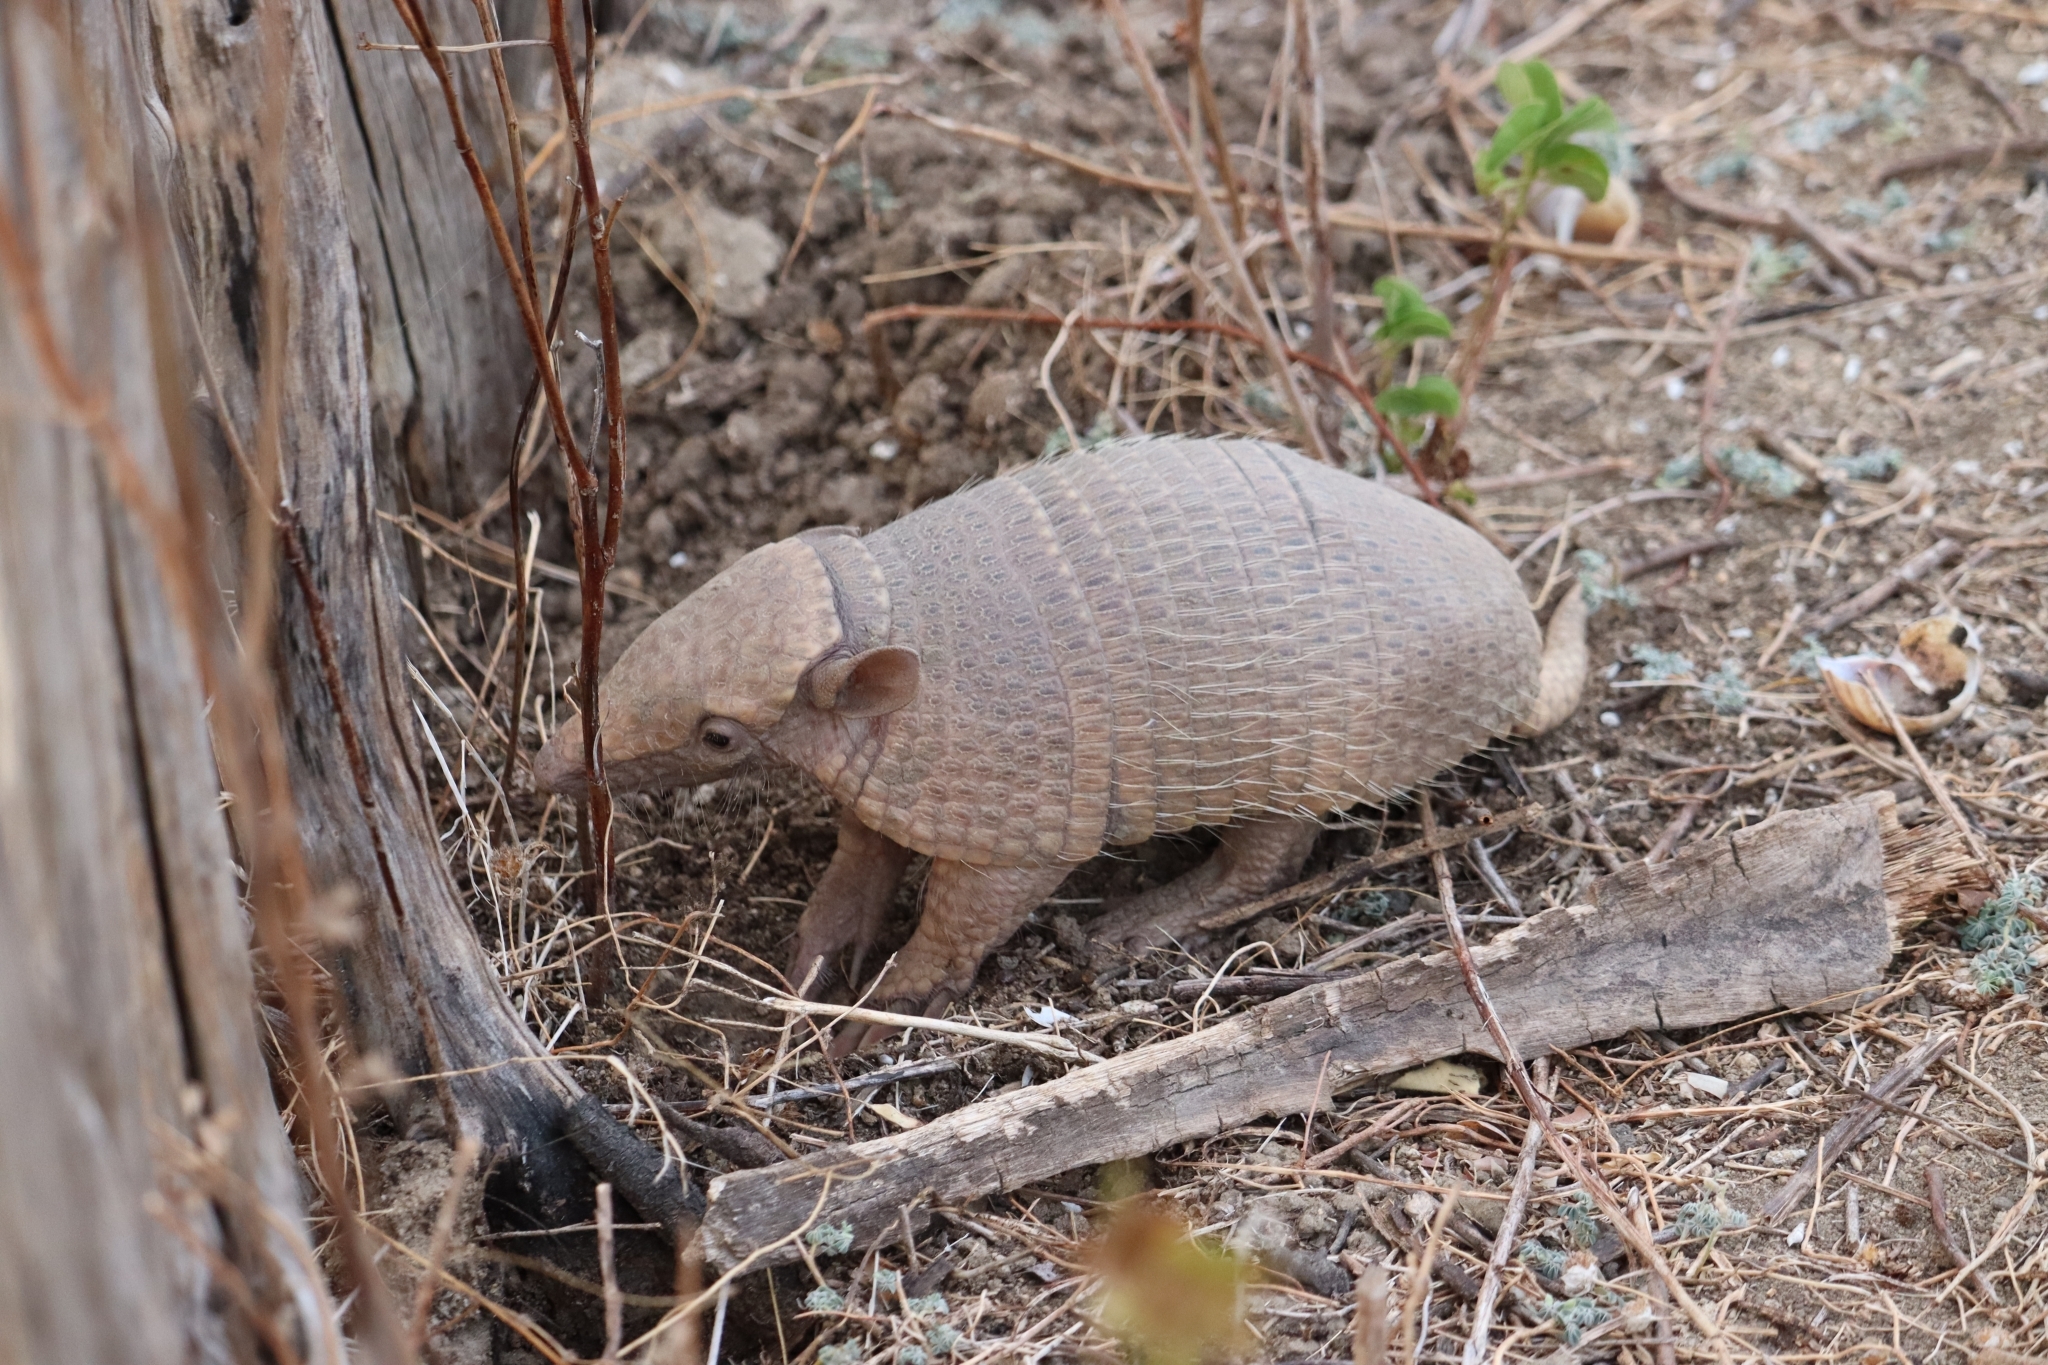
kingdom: Animalia
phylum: Chordata
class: Mammalia
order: Cingulata
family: Dasypodidae
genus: Euphractus
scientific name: Euphractus sexcinctus
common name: Six-banded armadillo
